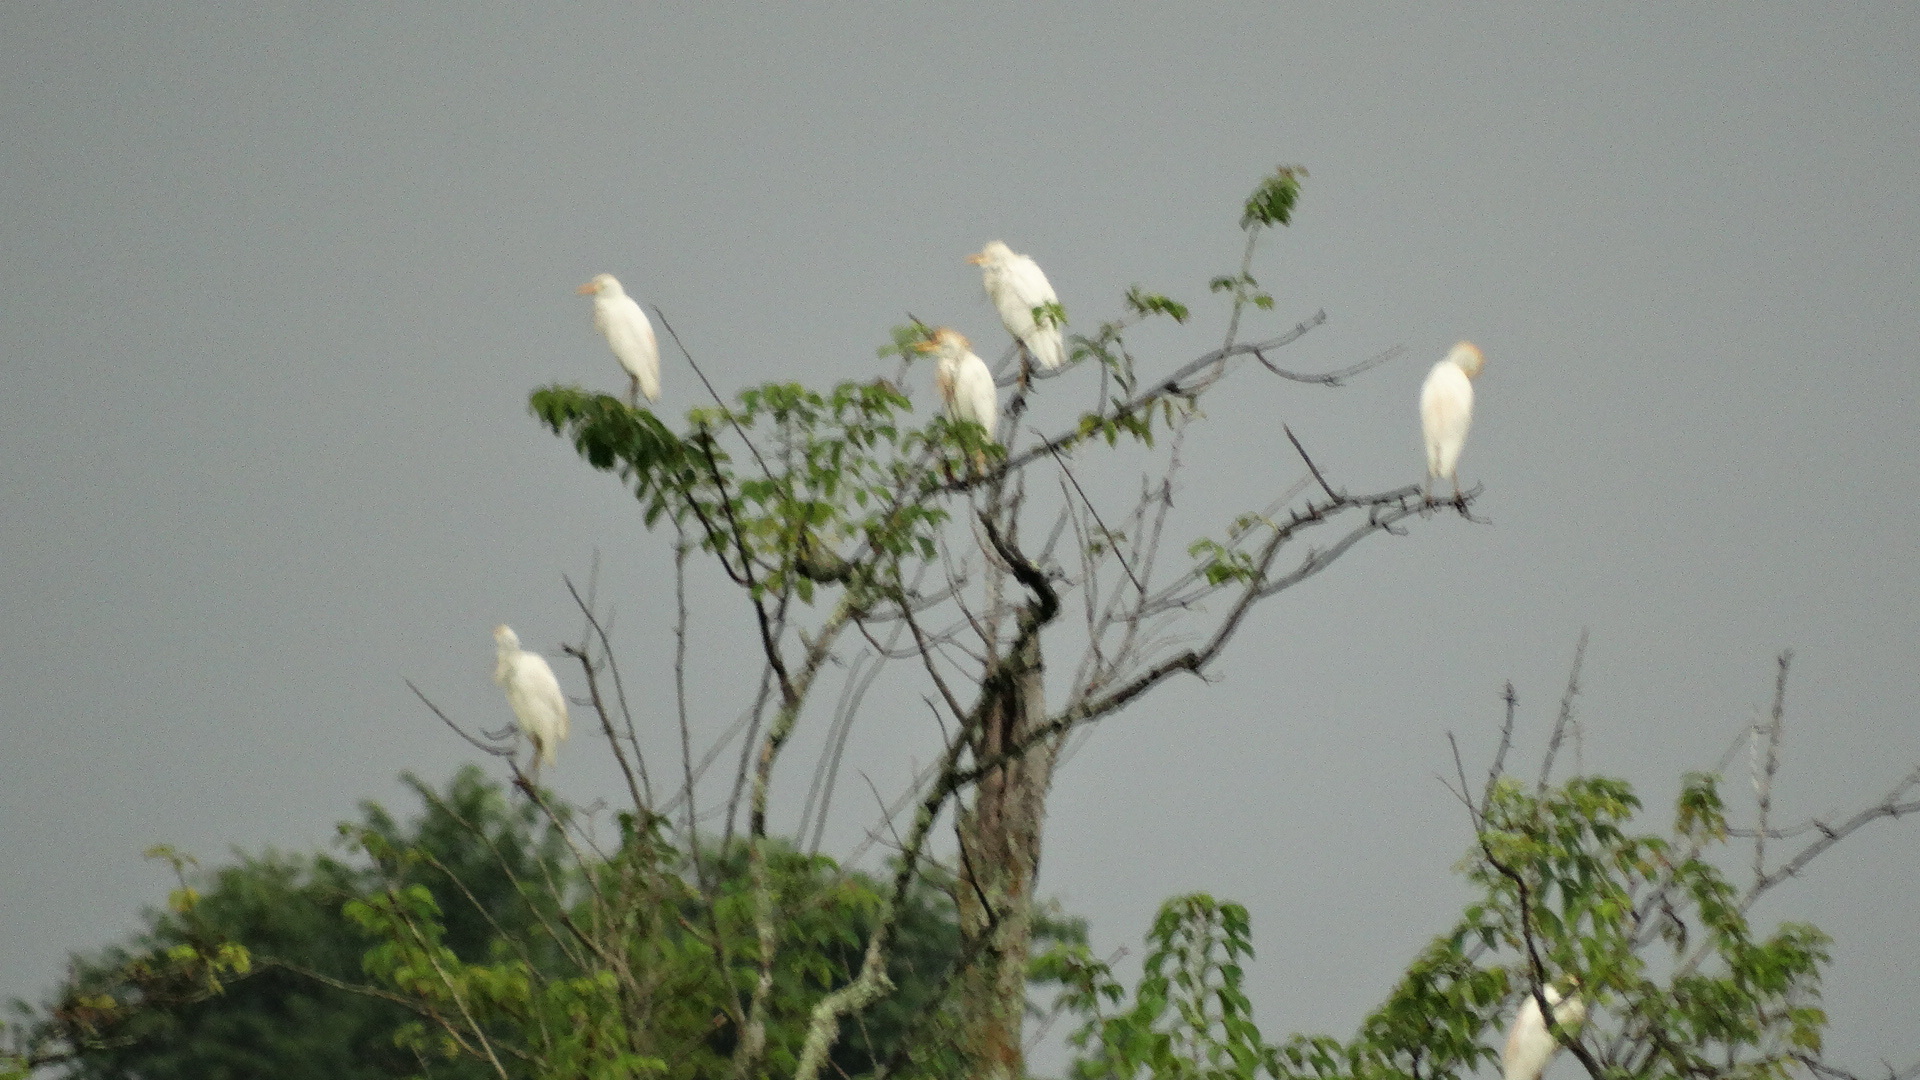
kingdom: Animalia
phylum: Chordata
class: Aves
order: Pelecaniformes
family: Ardeidae
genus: Bubulcus
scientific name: Bubulcus ibis
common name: Cattle egret
